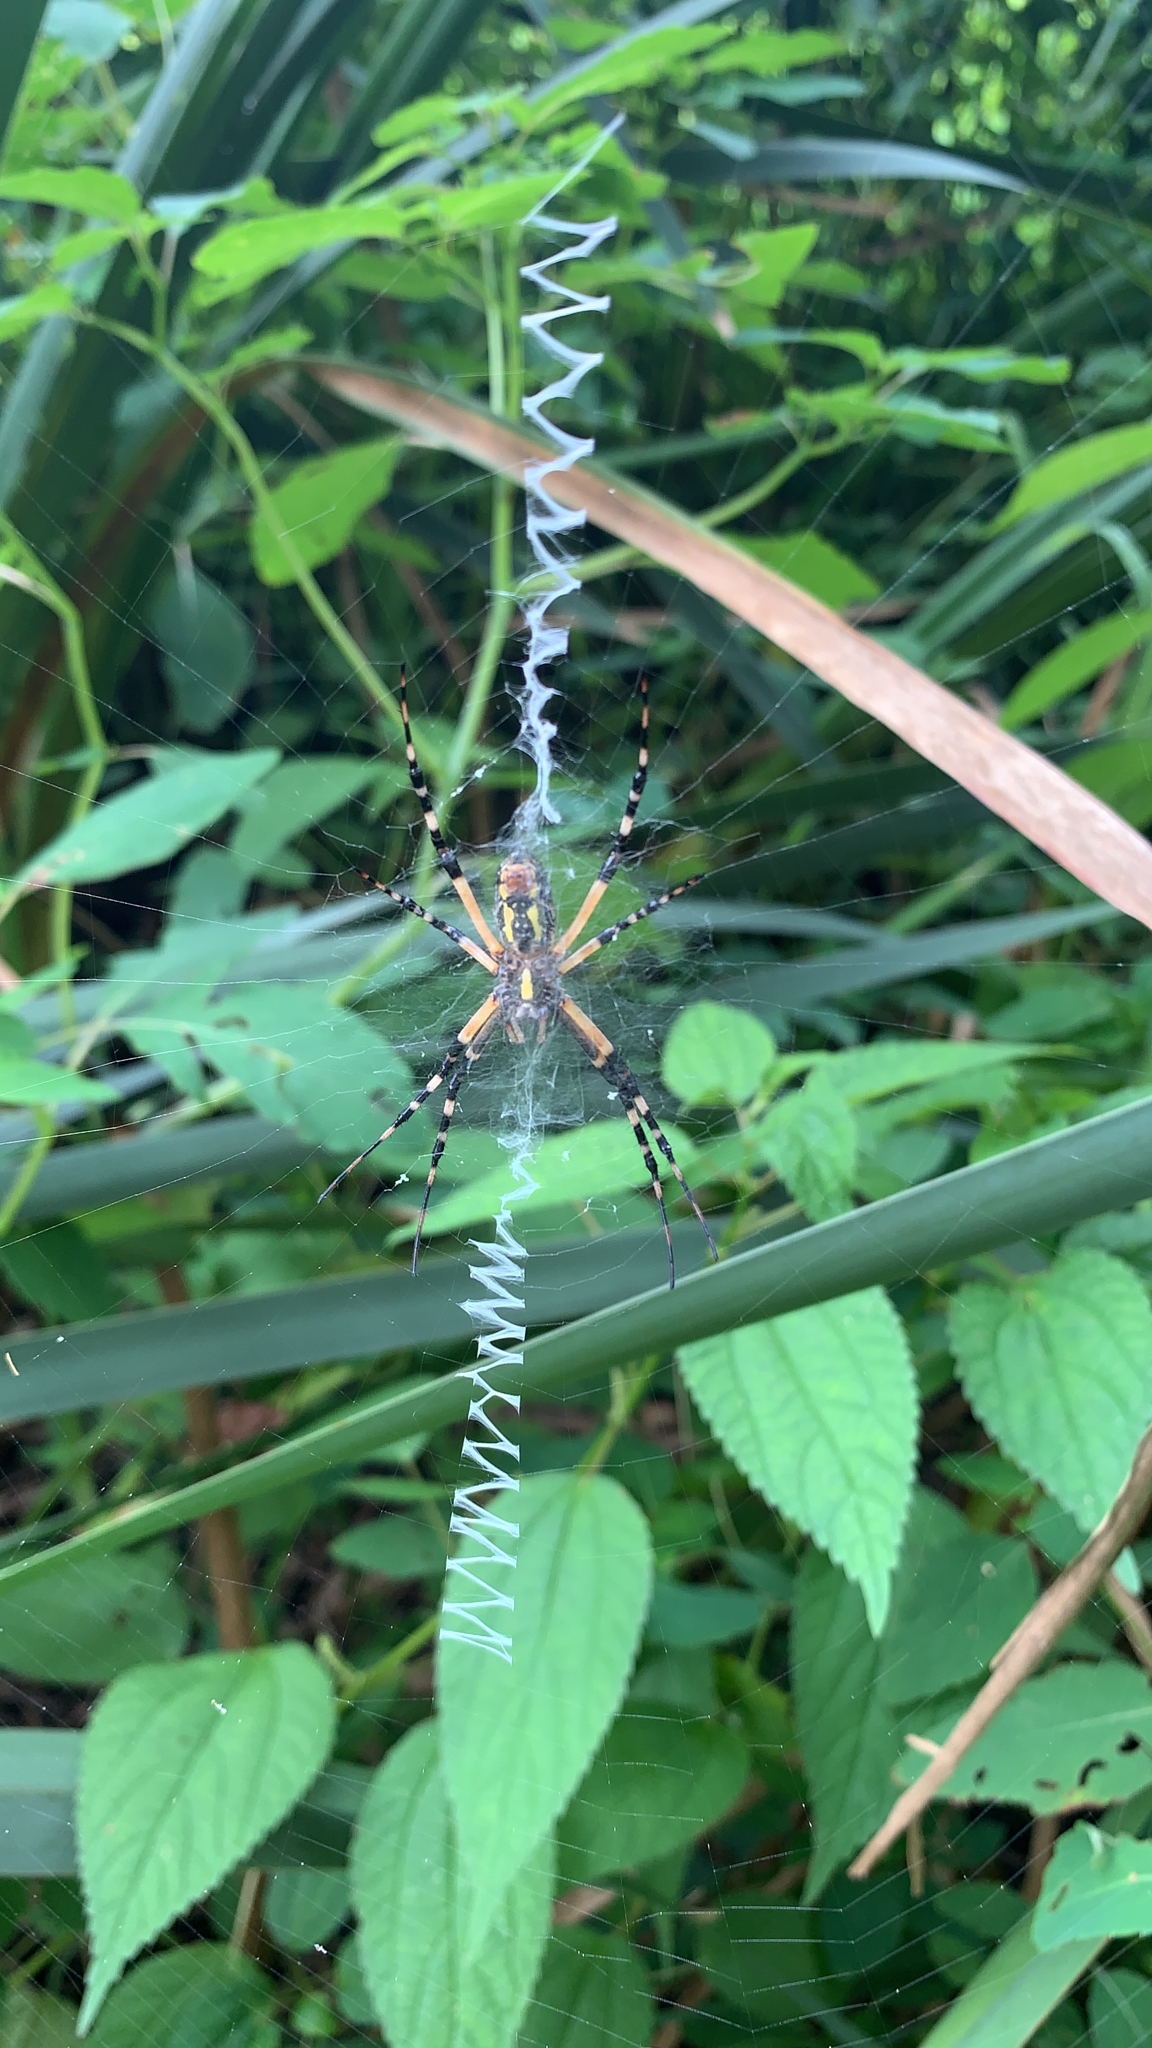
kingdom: Animalia
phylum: Arthropoda
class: Arachnida
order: Araneae
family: Araneidae
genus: Argiope
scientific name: Argiope aurantia
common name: Orb weavers
